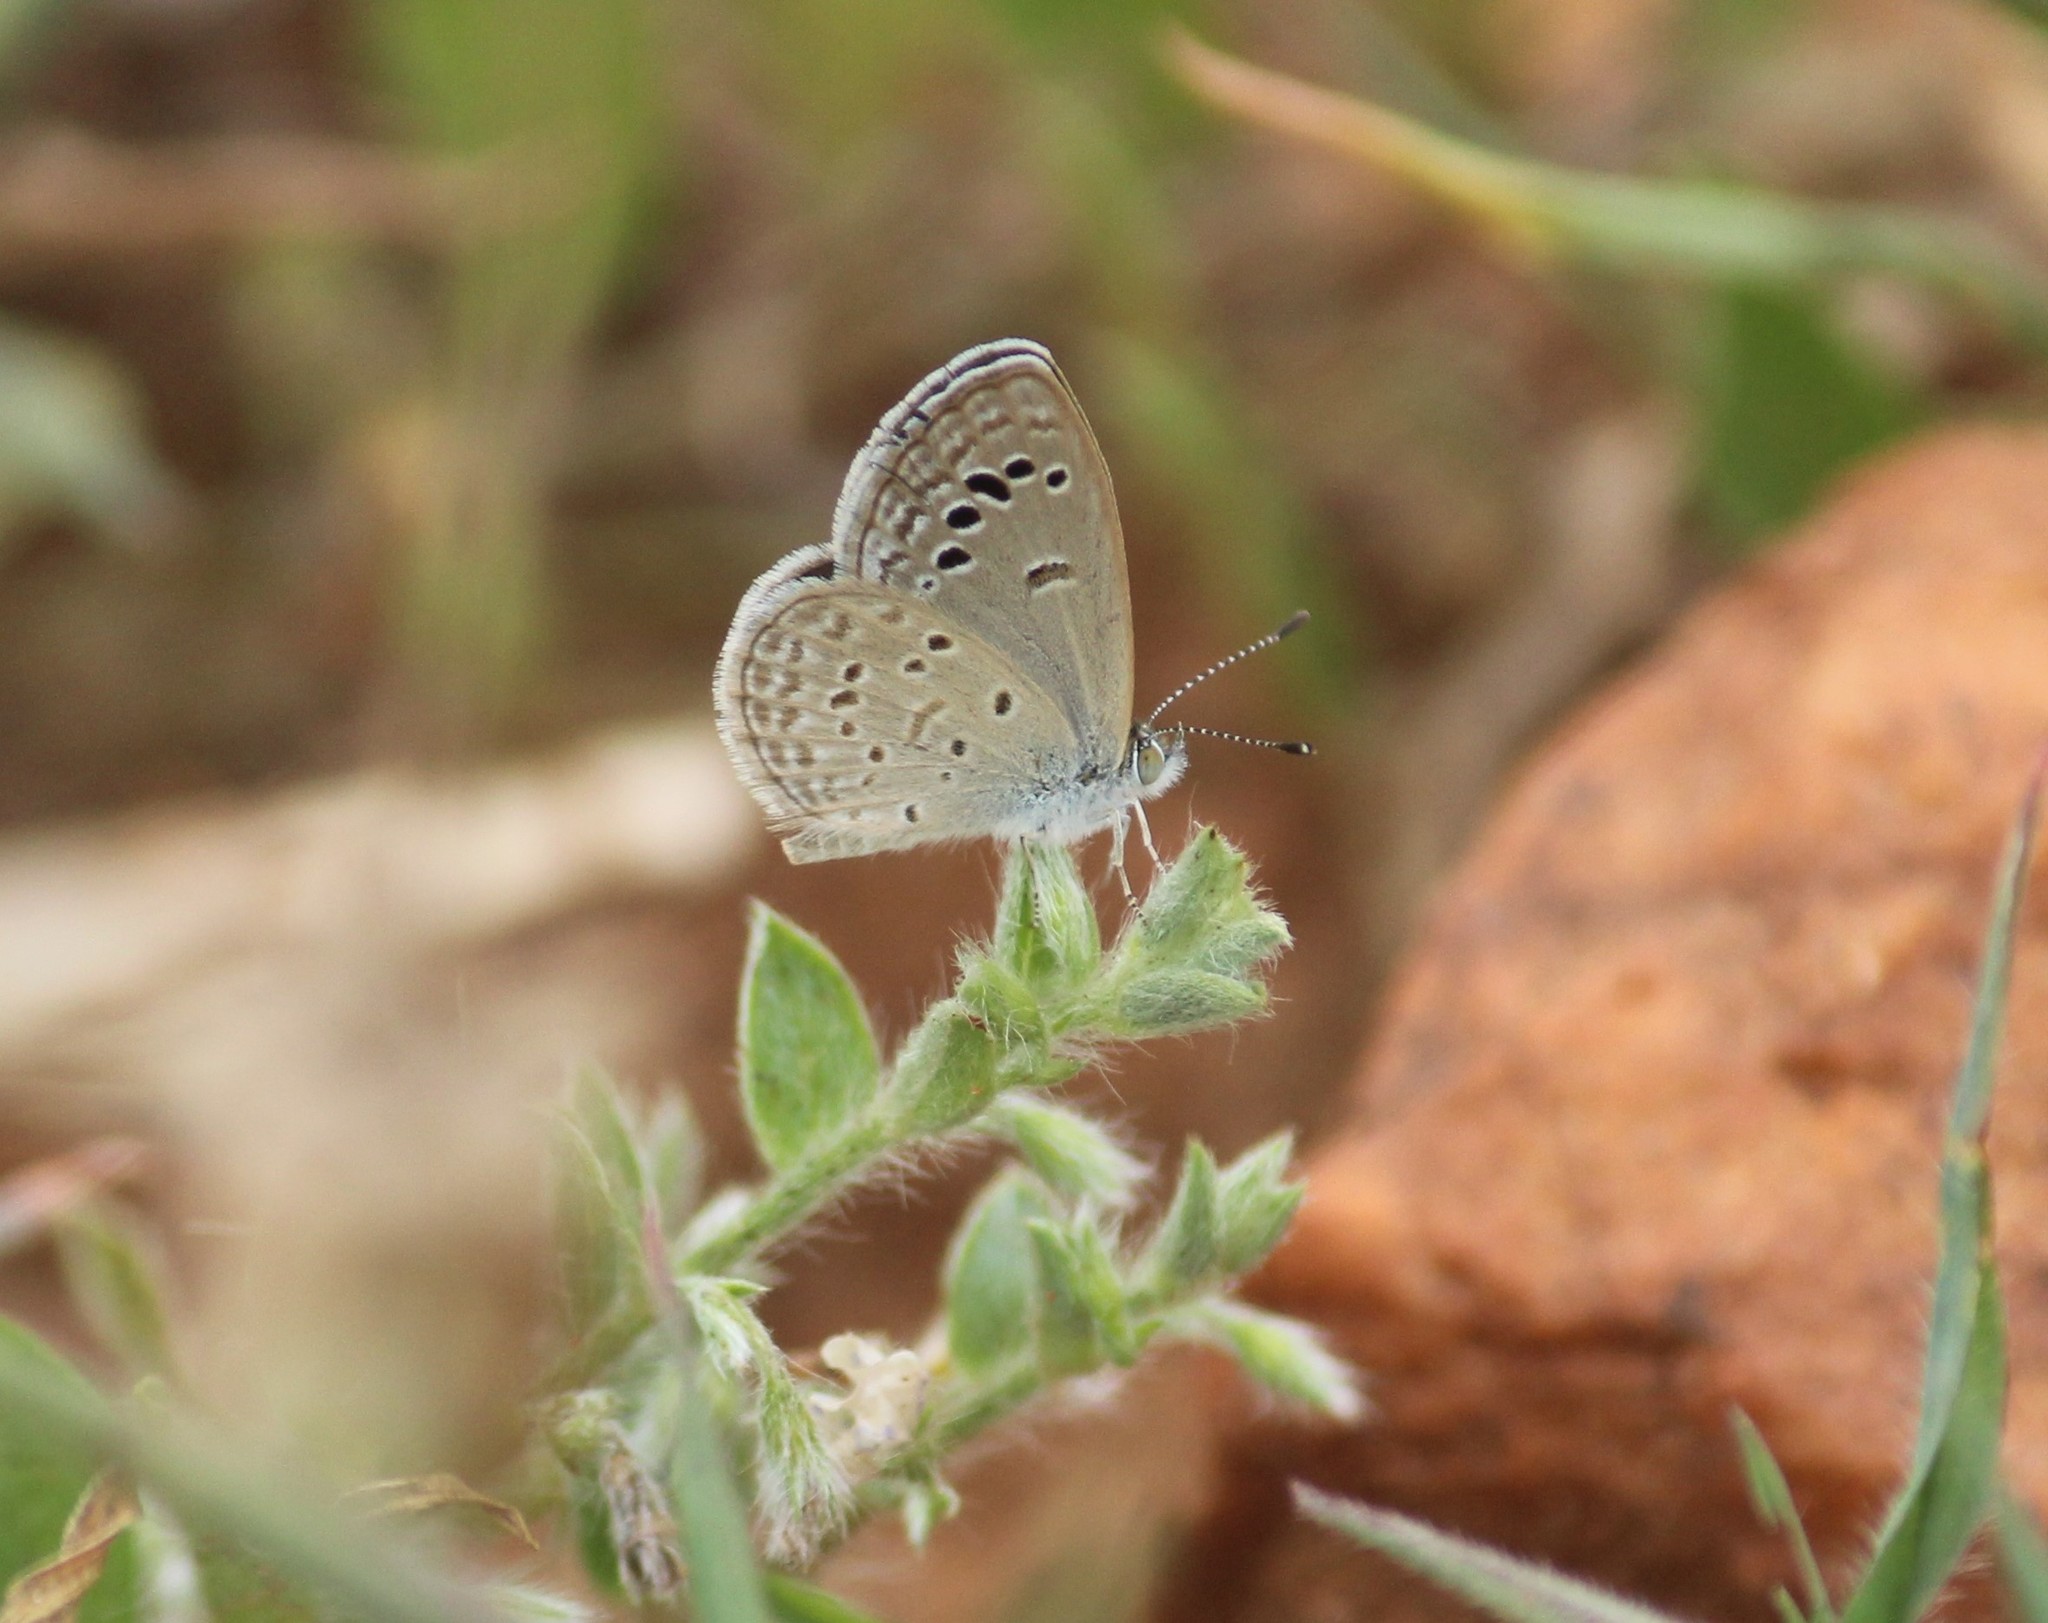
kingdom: Animalia
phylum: Arthropoda
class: Insecta
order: Lepidoptera
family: Lycaenidae
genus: Zizina
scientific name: Zizina otis
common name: Lesser grass blue
